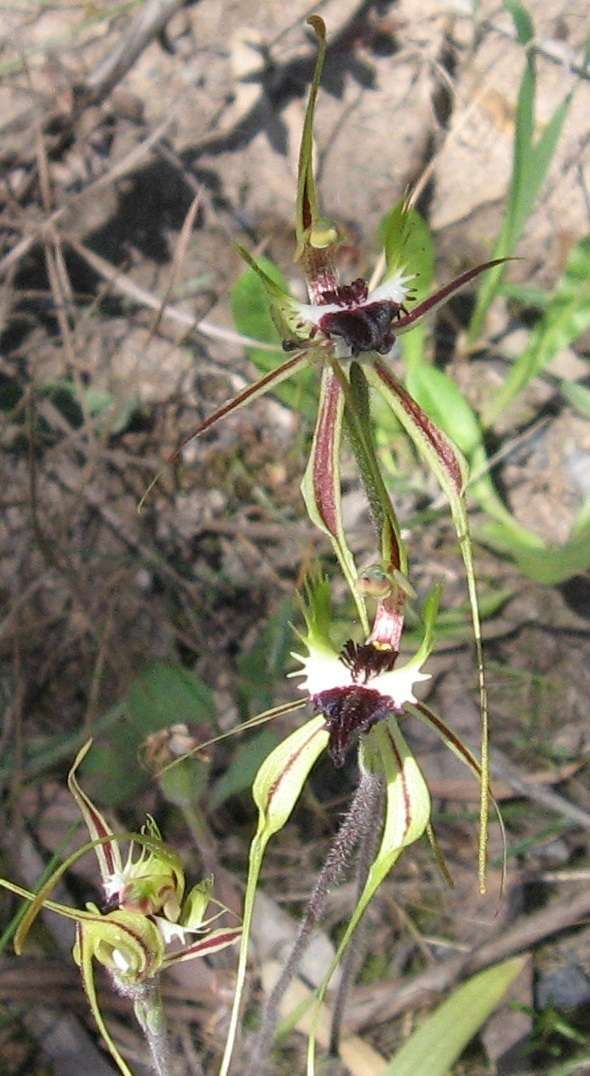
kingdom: Plantae
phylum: Tracheophyta
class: Liliopsida
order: Asparagales
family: Orchidaceae
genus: Caladenia
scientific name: Caladenia tentaculata
